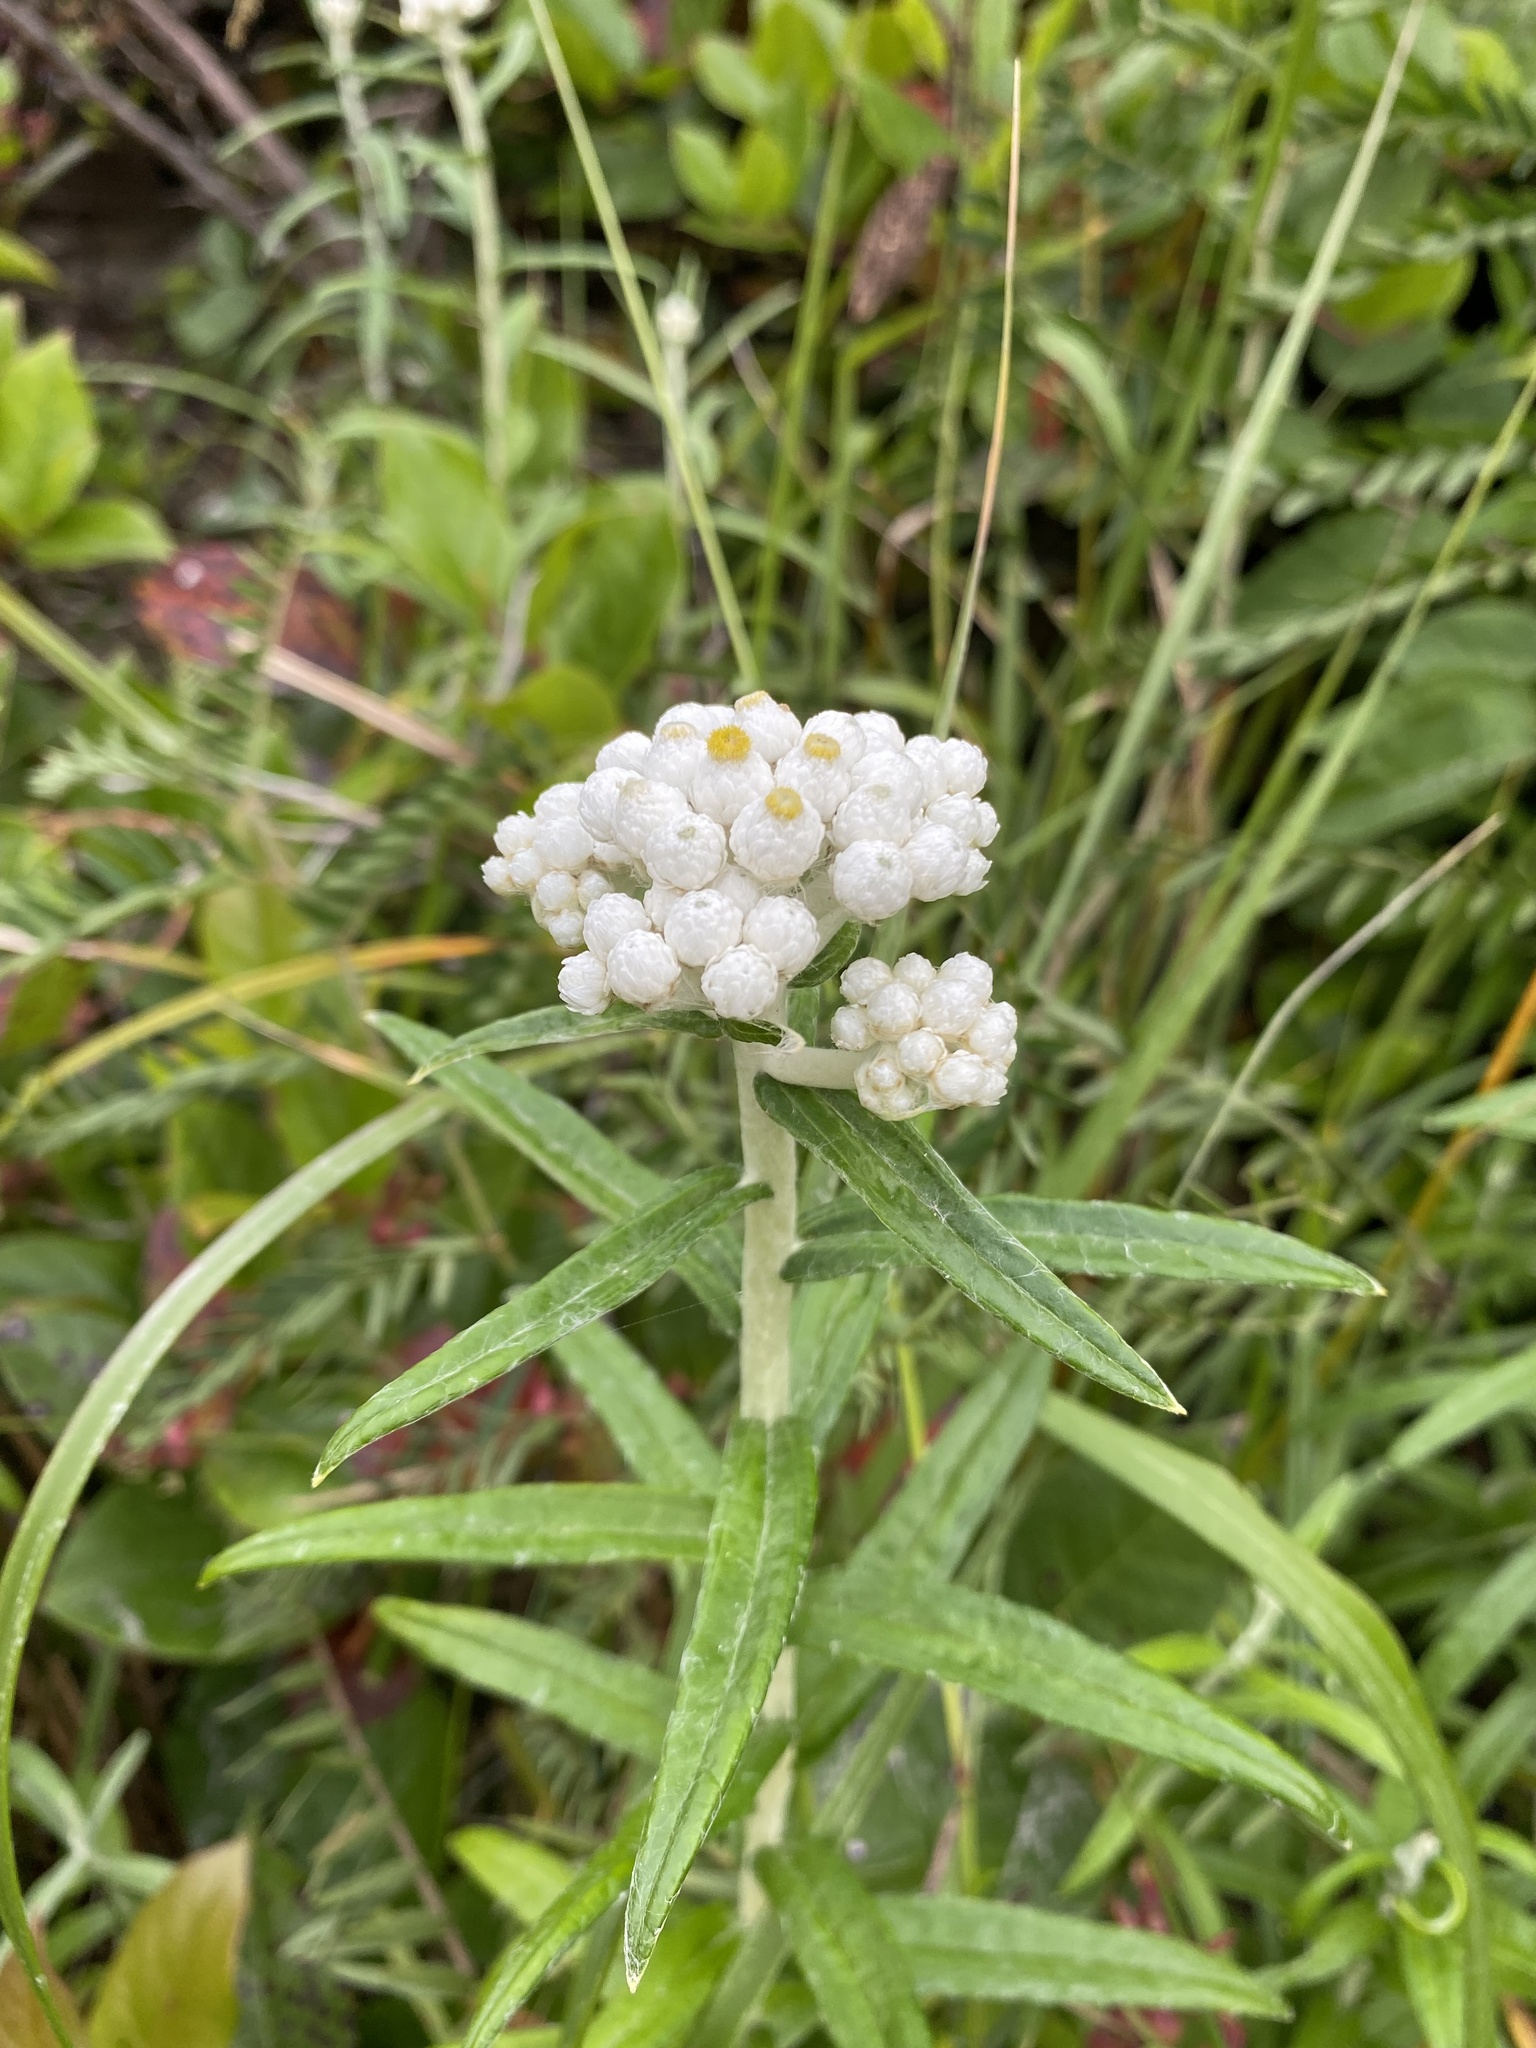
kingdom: Plantae
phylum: Tracheophyta
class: Magnoliopsida
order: Asterales
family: Asteraceae
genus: Anaphalis
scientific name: Anaphalis margaritacea
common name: Pearly everlasting
